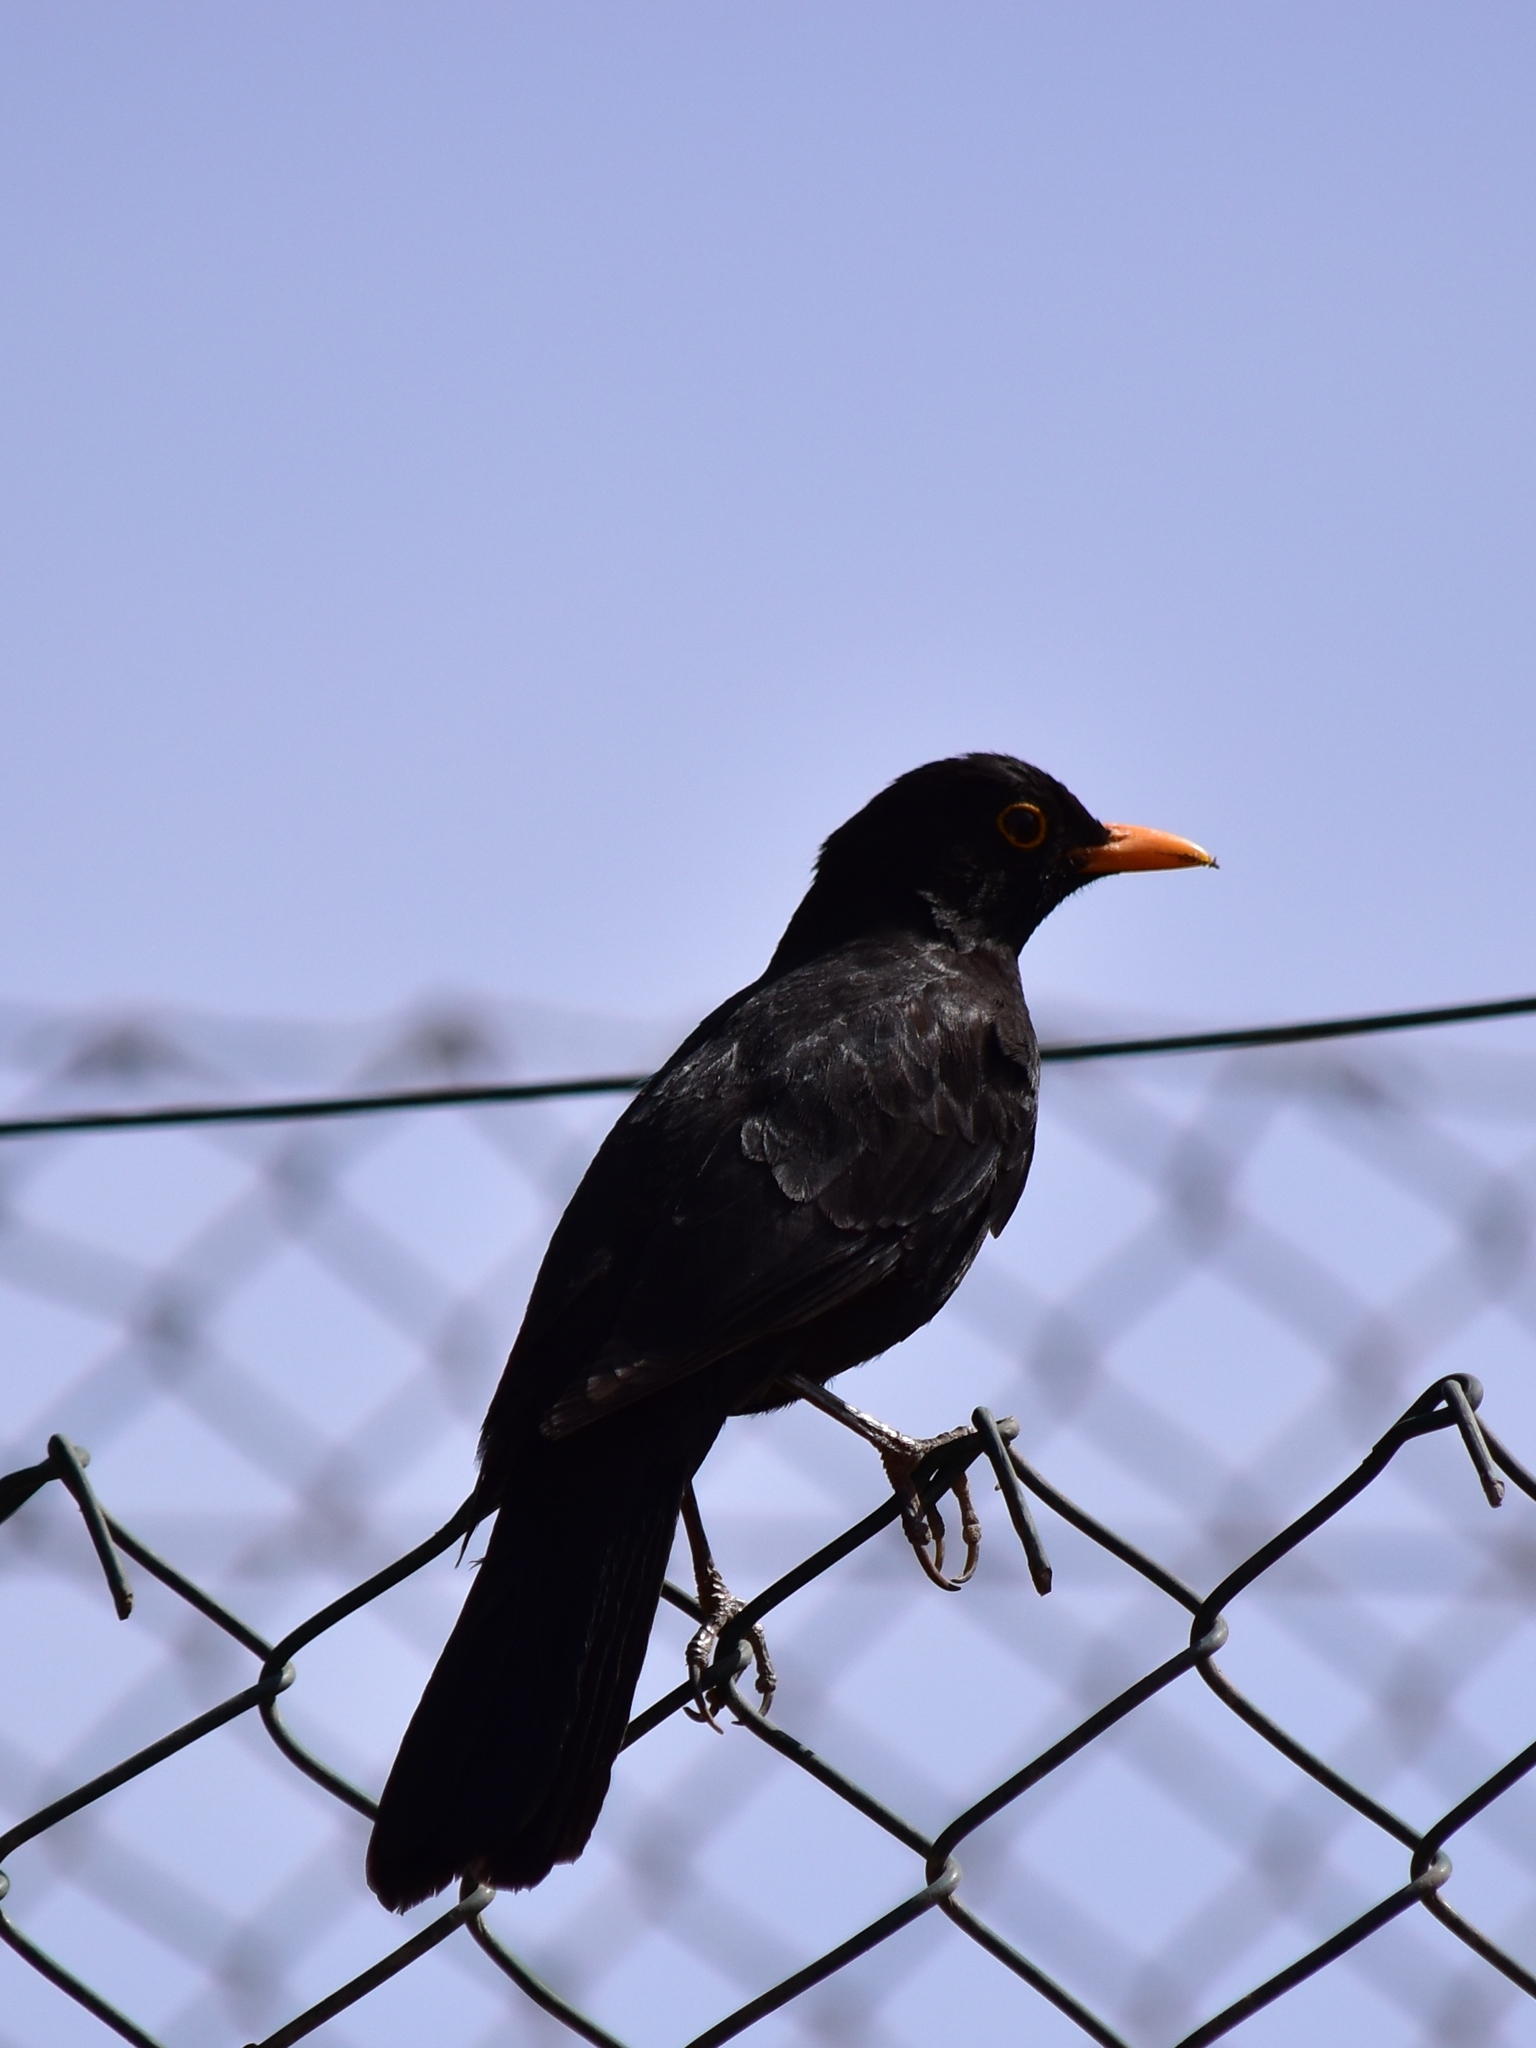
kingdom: Animalia
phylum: Chordata
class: Aves
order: Passeriformes
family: Turdidae
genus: Turdus
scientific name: Turdus merula
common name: Common blackbird
